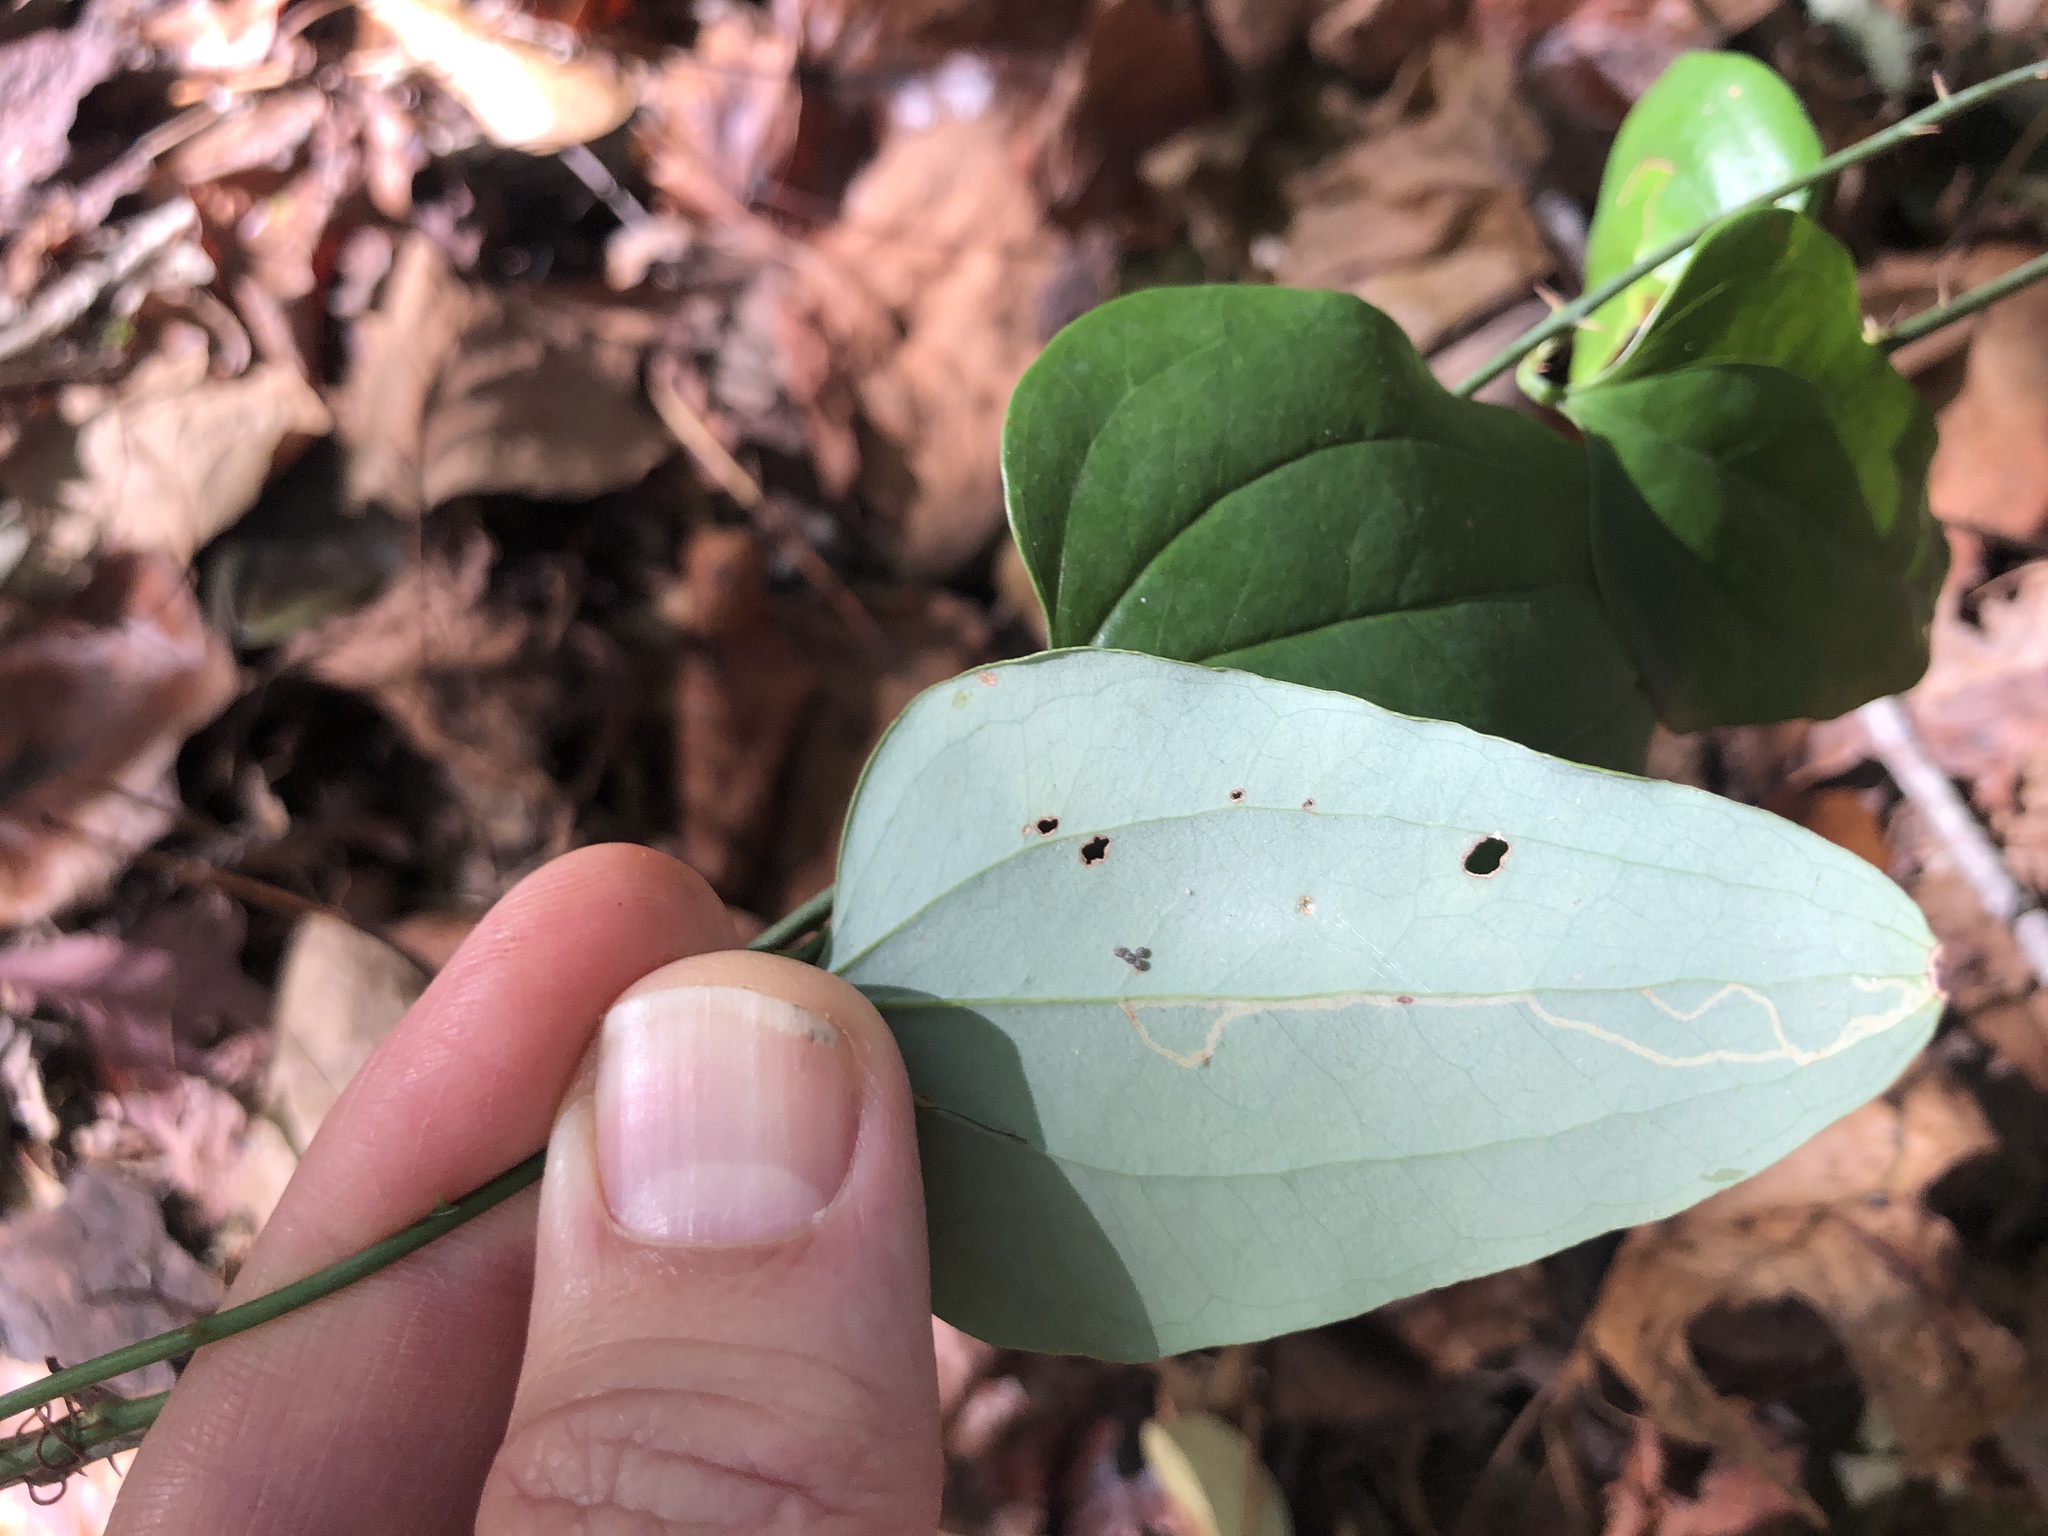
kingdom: Plantae
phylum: Tracheophyta
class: Liliopsida
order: Liliales
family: Smilacaceae
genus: Smilax
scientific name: Smilax glauca
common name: Cat greenbrier
